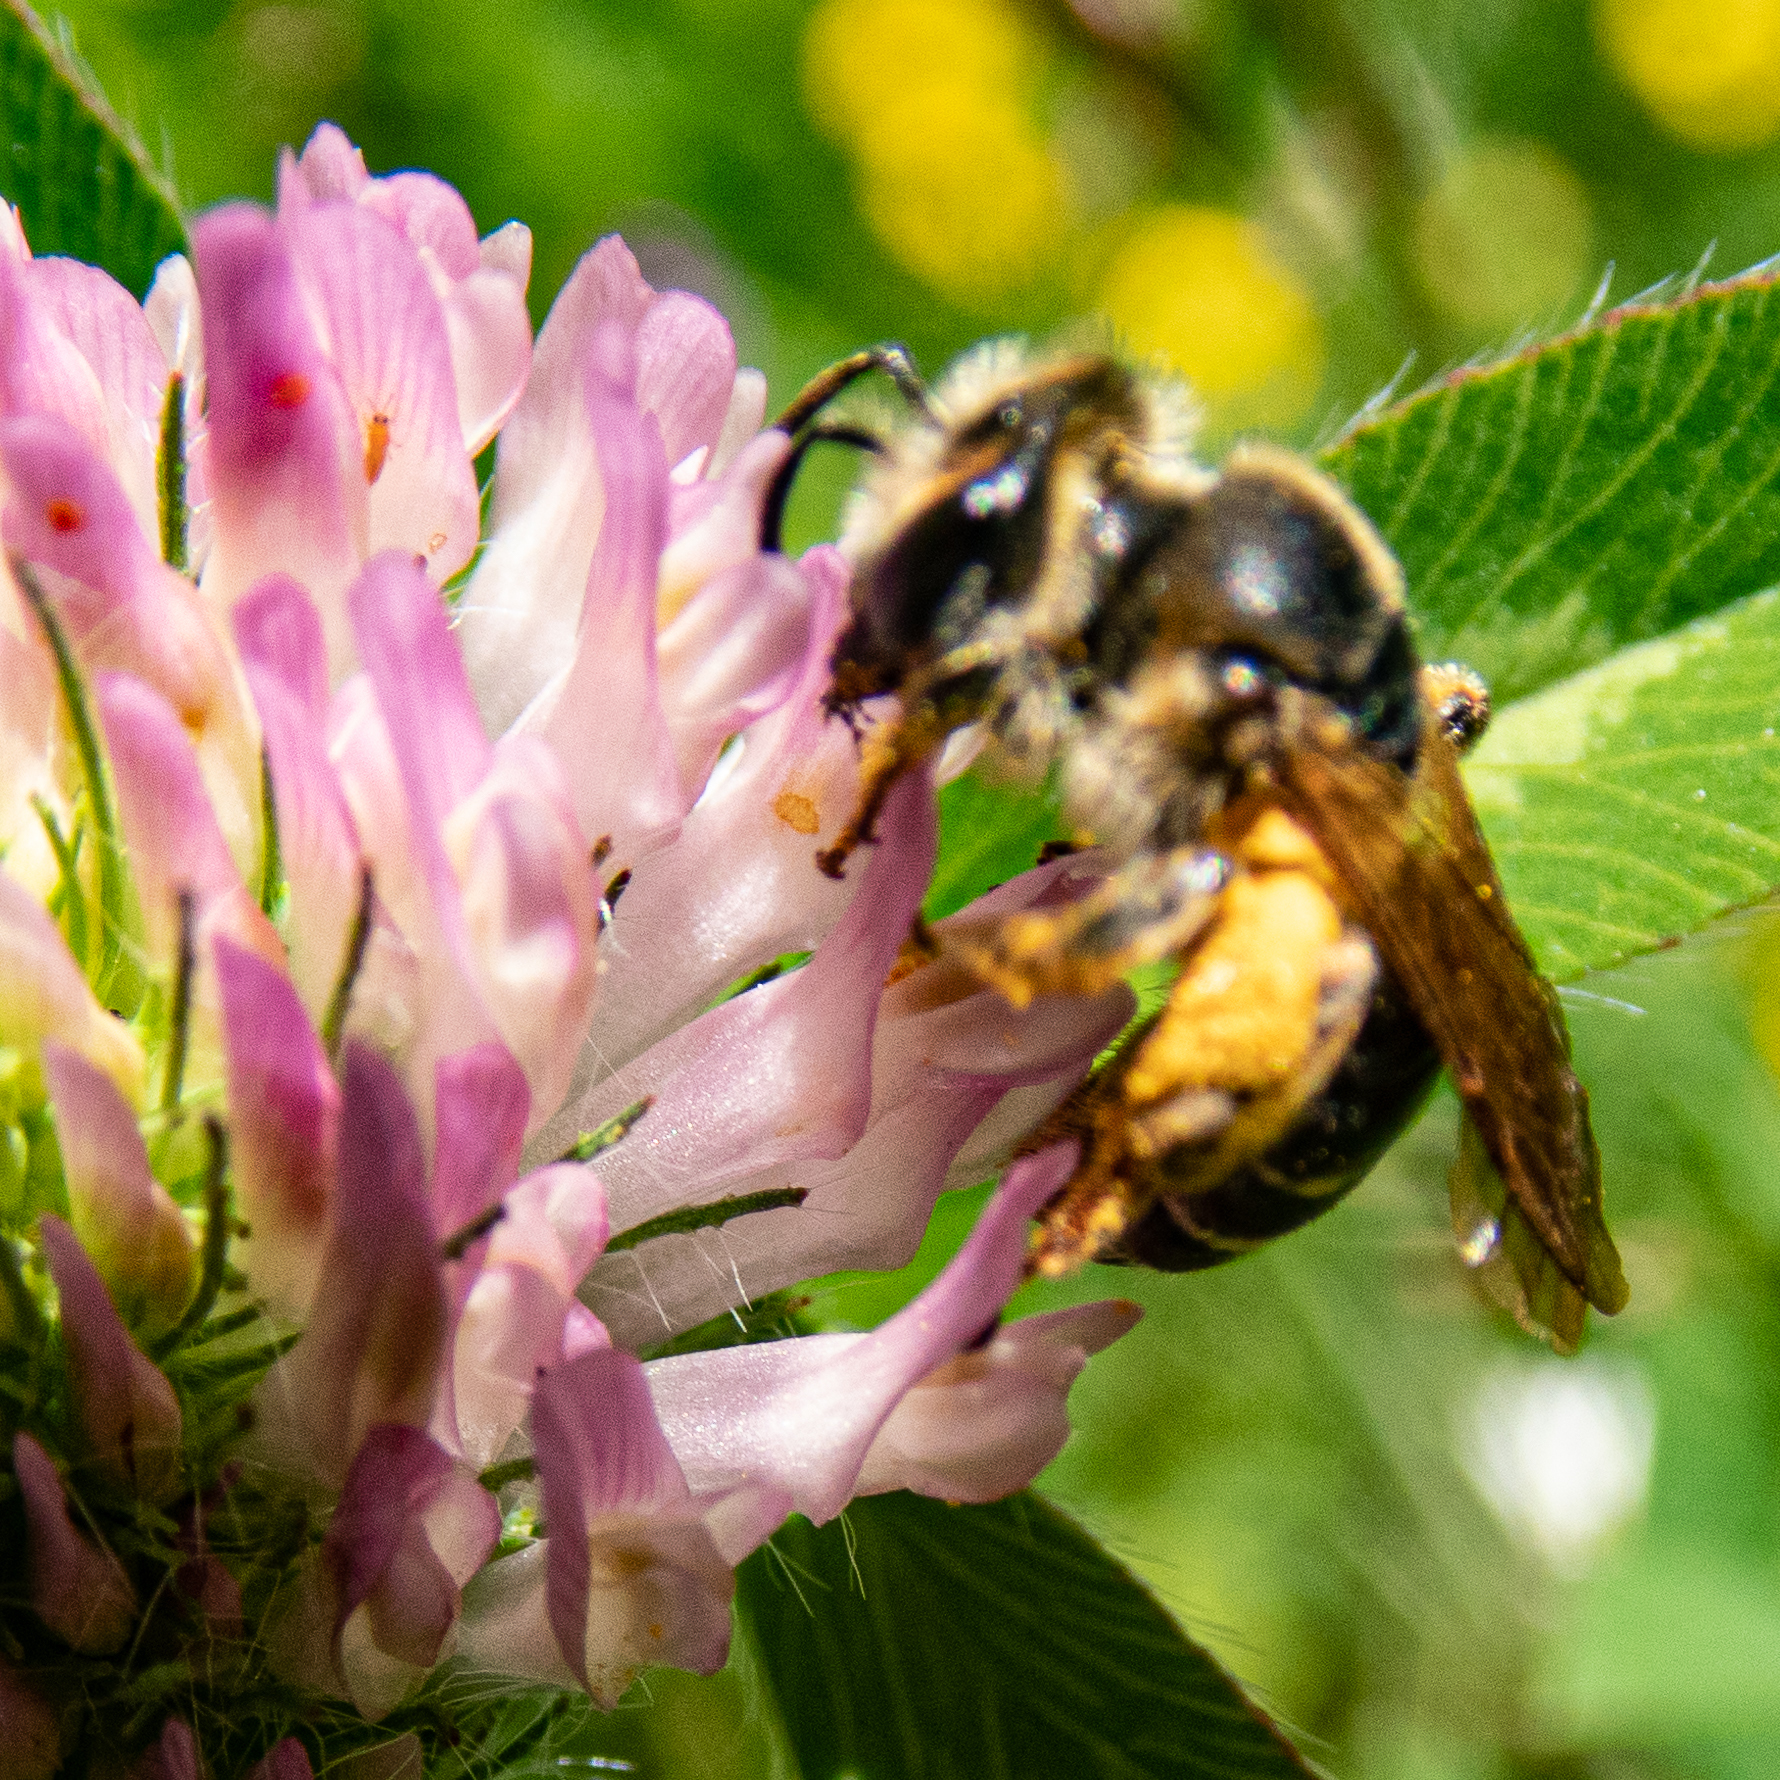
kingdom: Animalia
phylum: Arthropoda
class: Insecta
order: Hymenoptera
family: Andrenidae
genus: Andrena
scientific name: Andrena wilkella
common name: Wilke's mining bee
